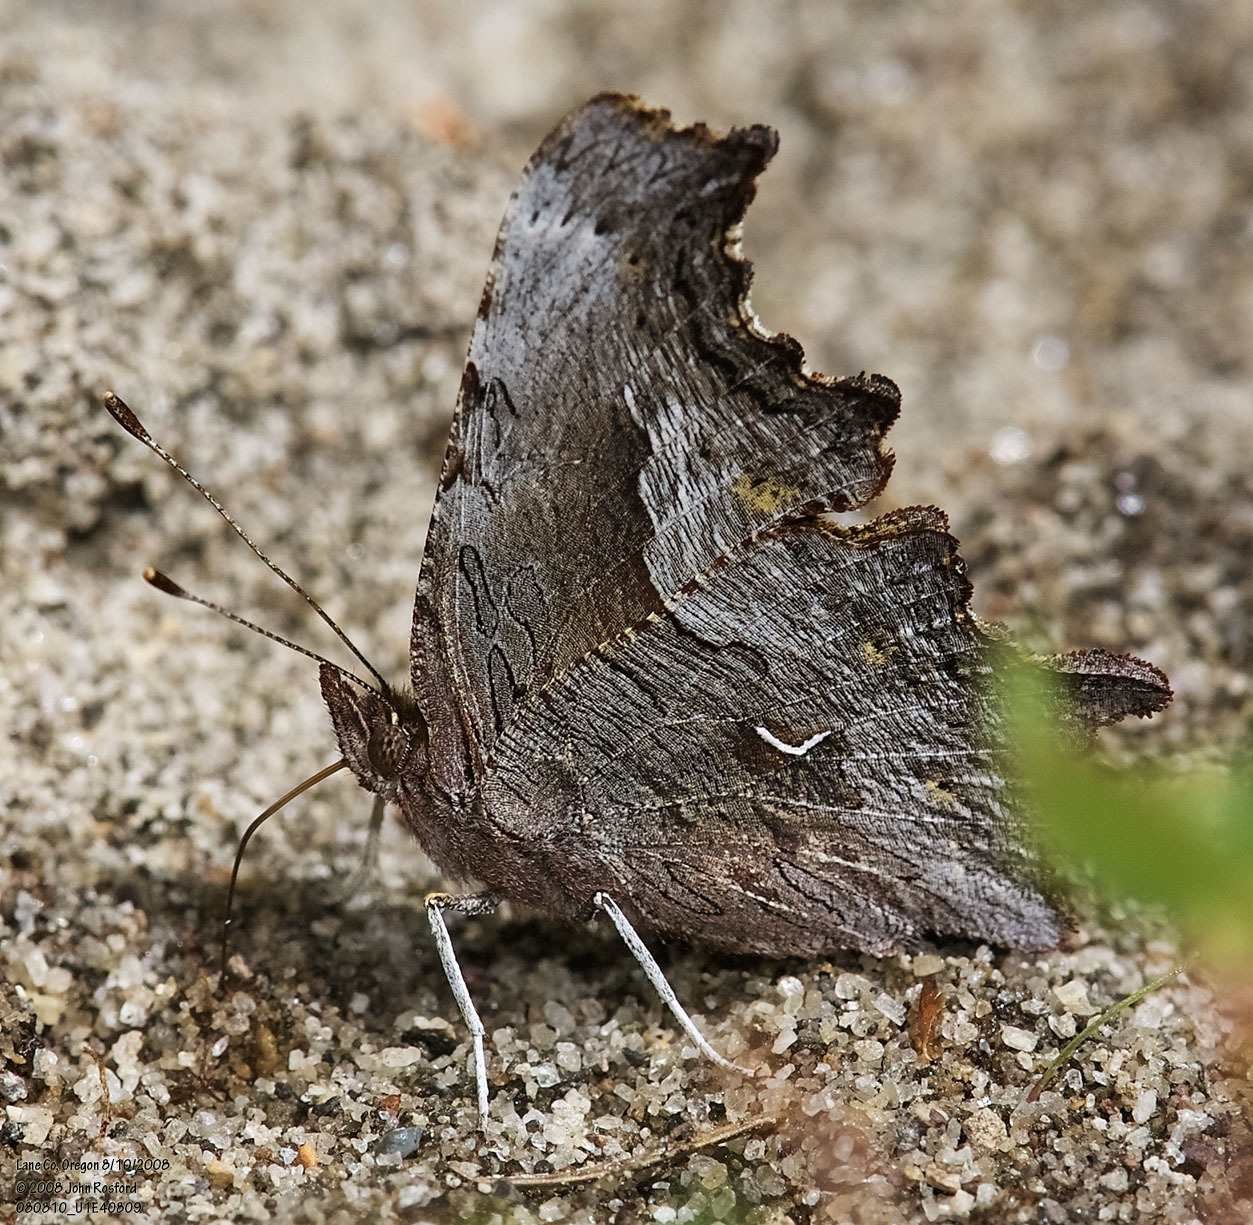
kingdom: Animalia
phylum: Arthropoda
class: Insecta
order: Lepidoptera
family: Nymphalidae
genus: Polygonia
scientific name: Polygonia gracilis
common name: Hoary comma
